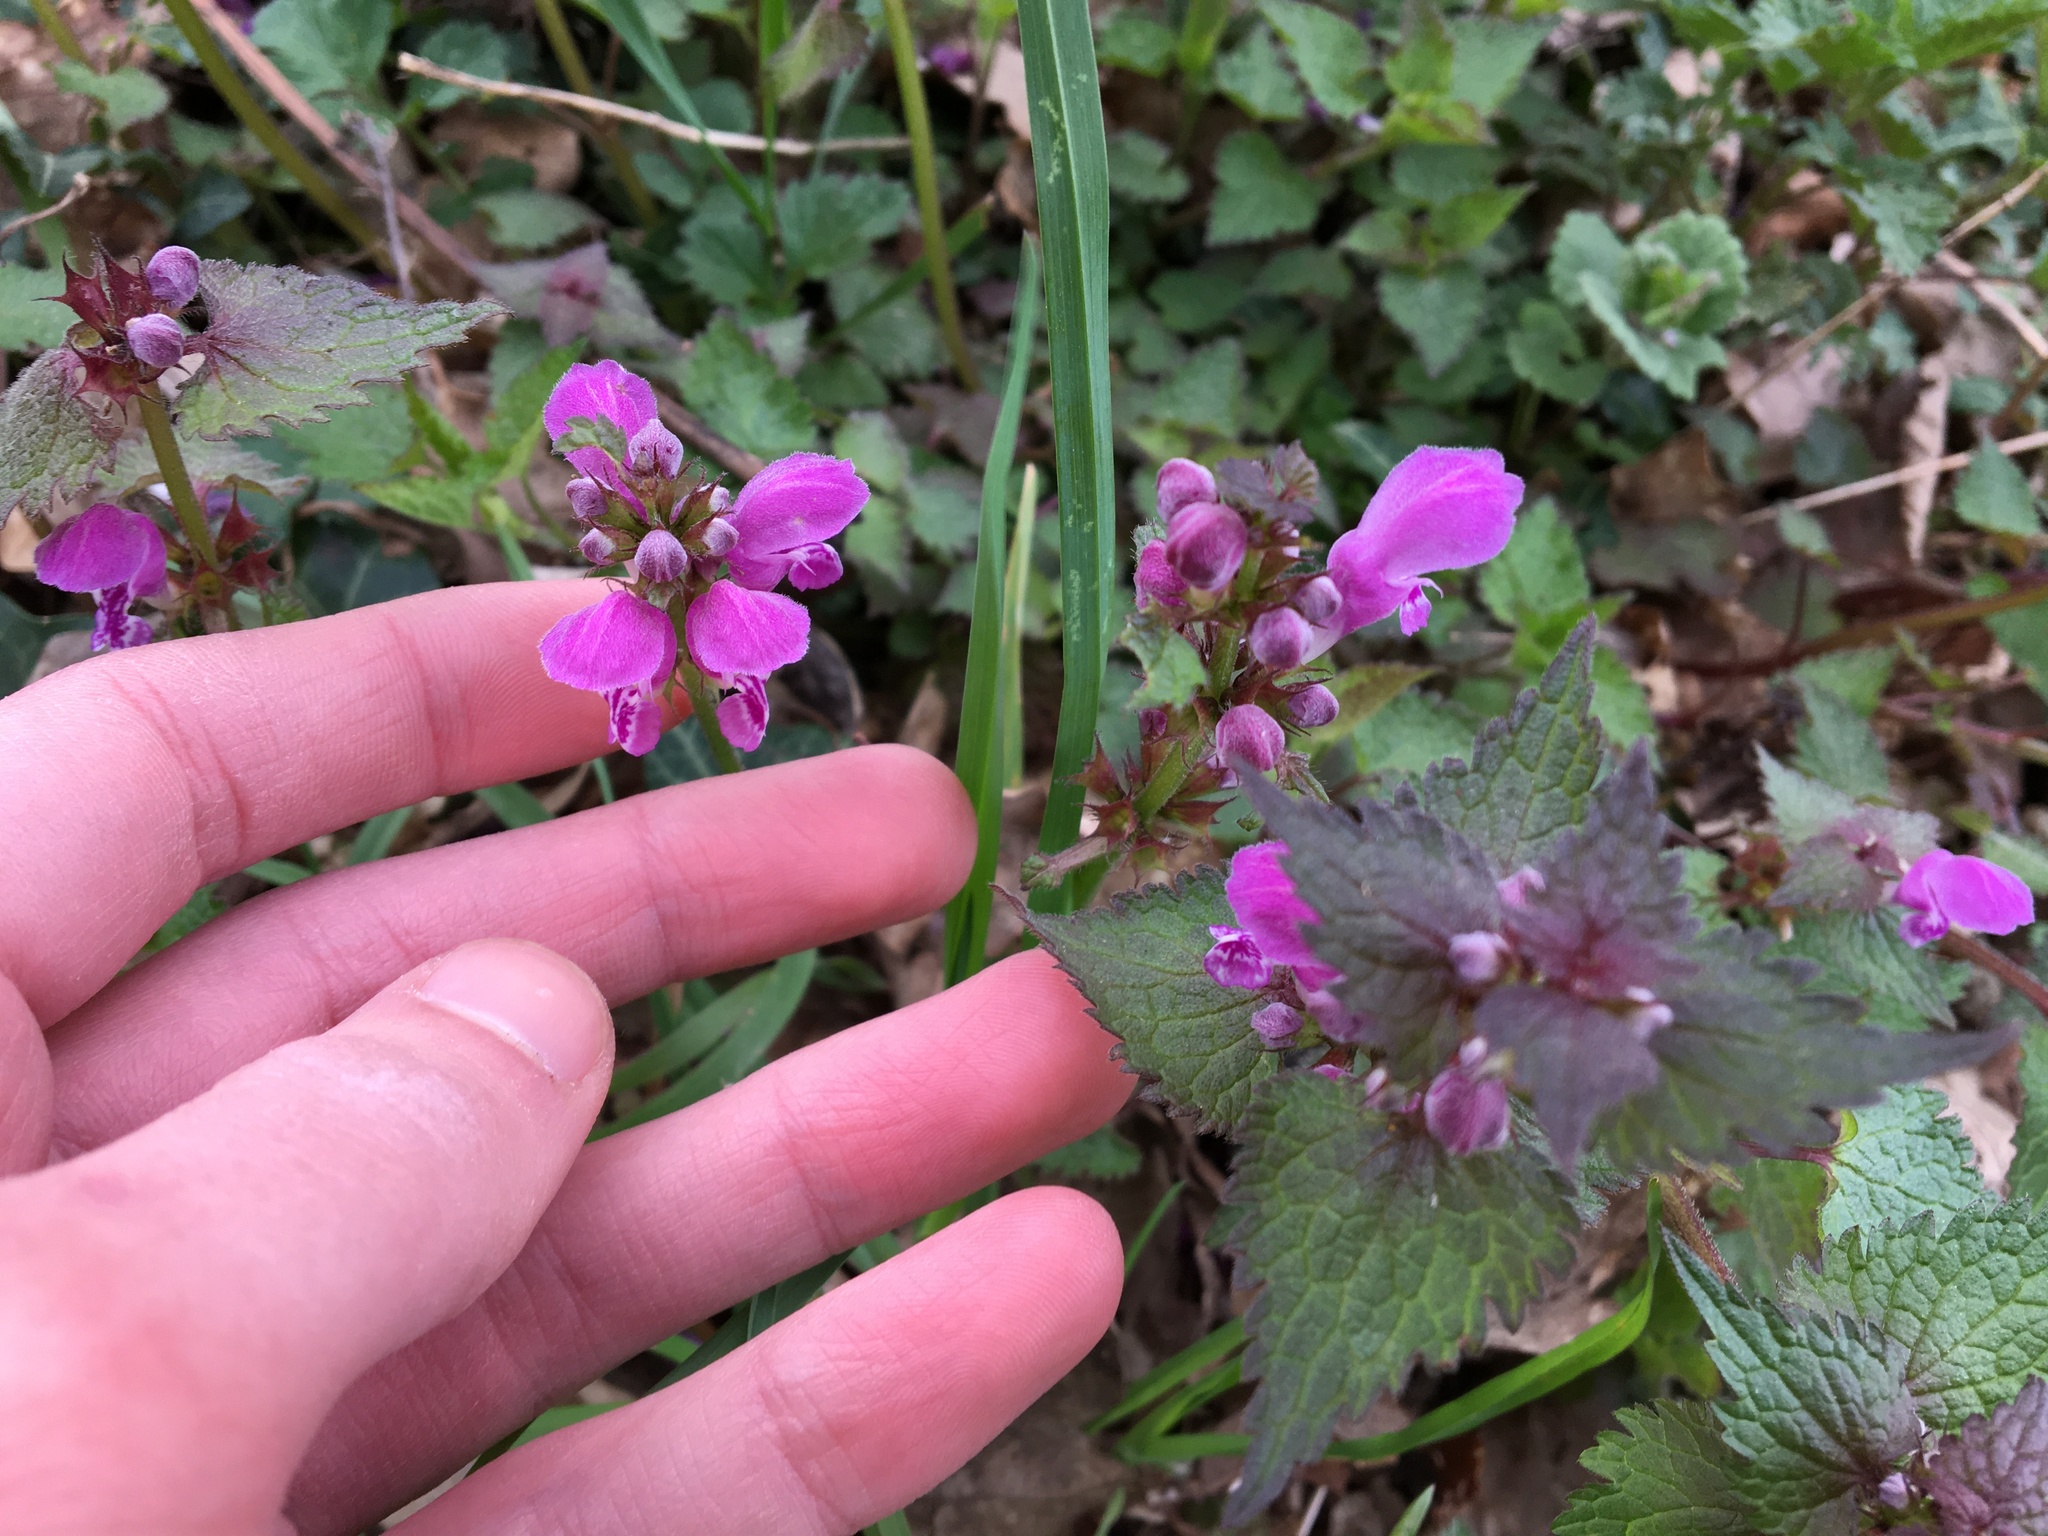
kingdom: Plantae
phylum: Tracheophyta
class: Magnoliopsida
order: Lamiales
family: Lamiaceae
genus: Lamium
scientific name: Lamium maculatum
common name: Spotted dead-nettle
